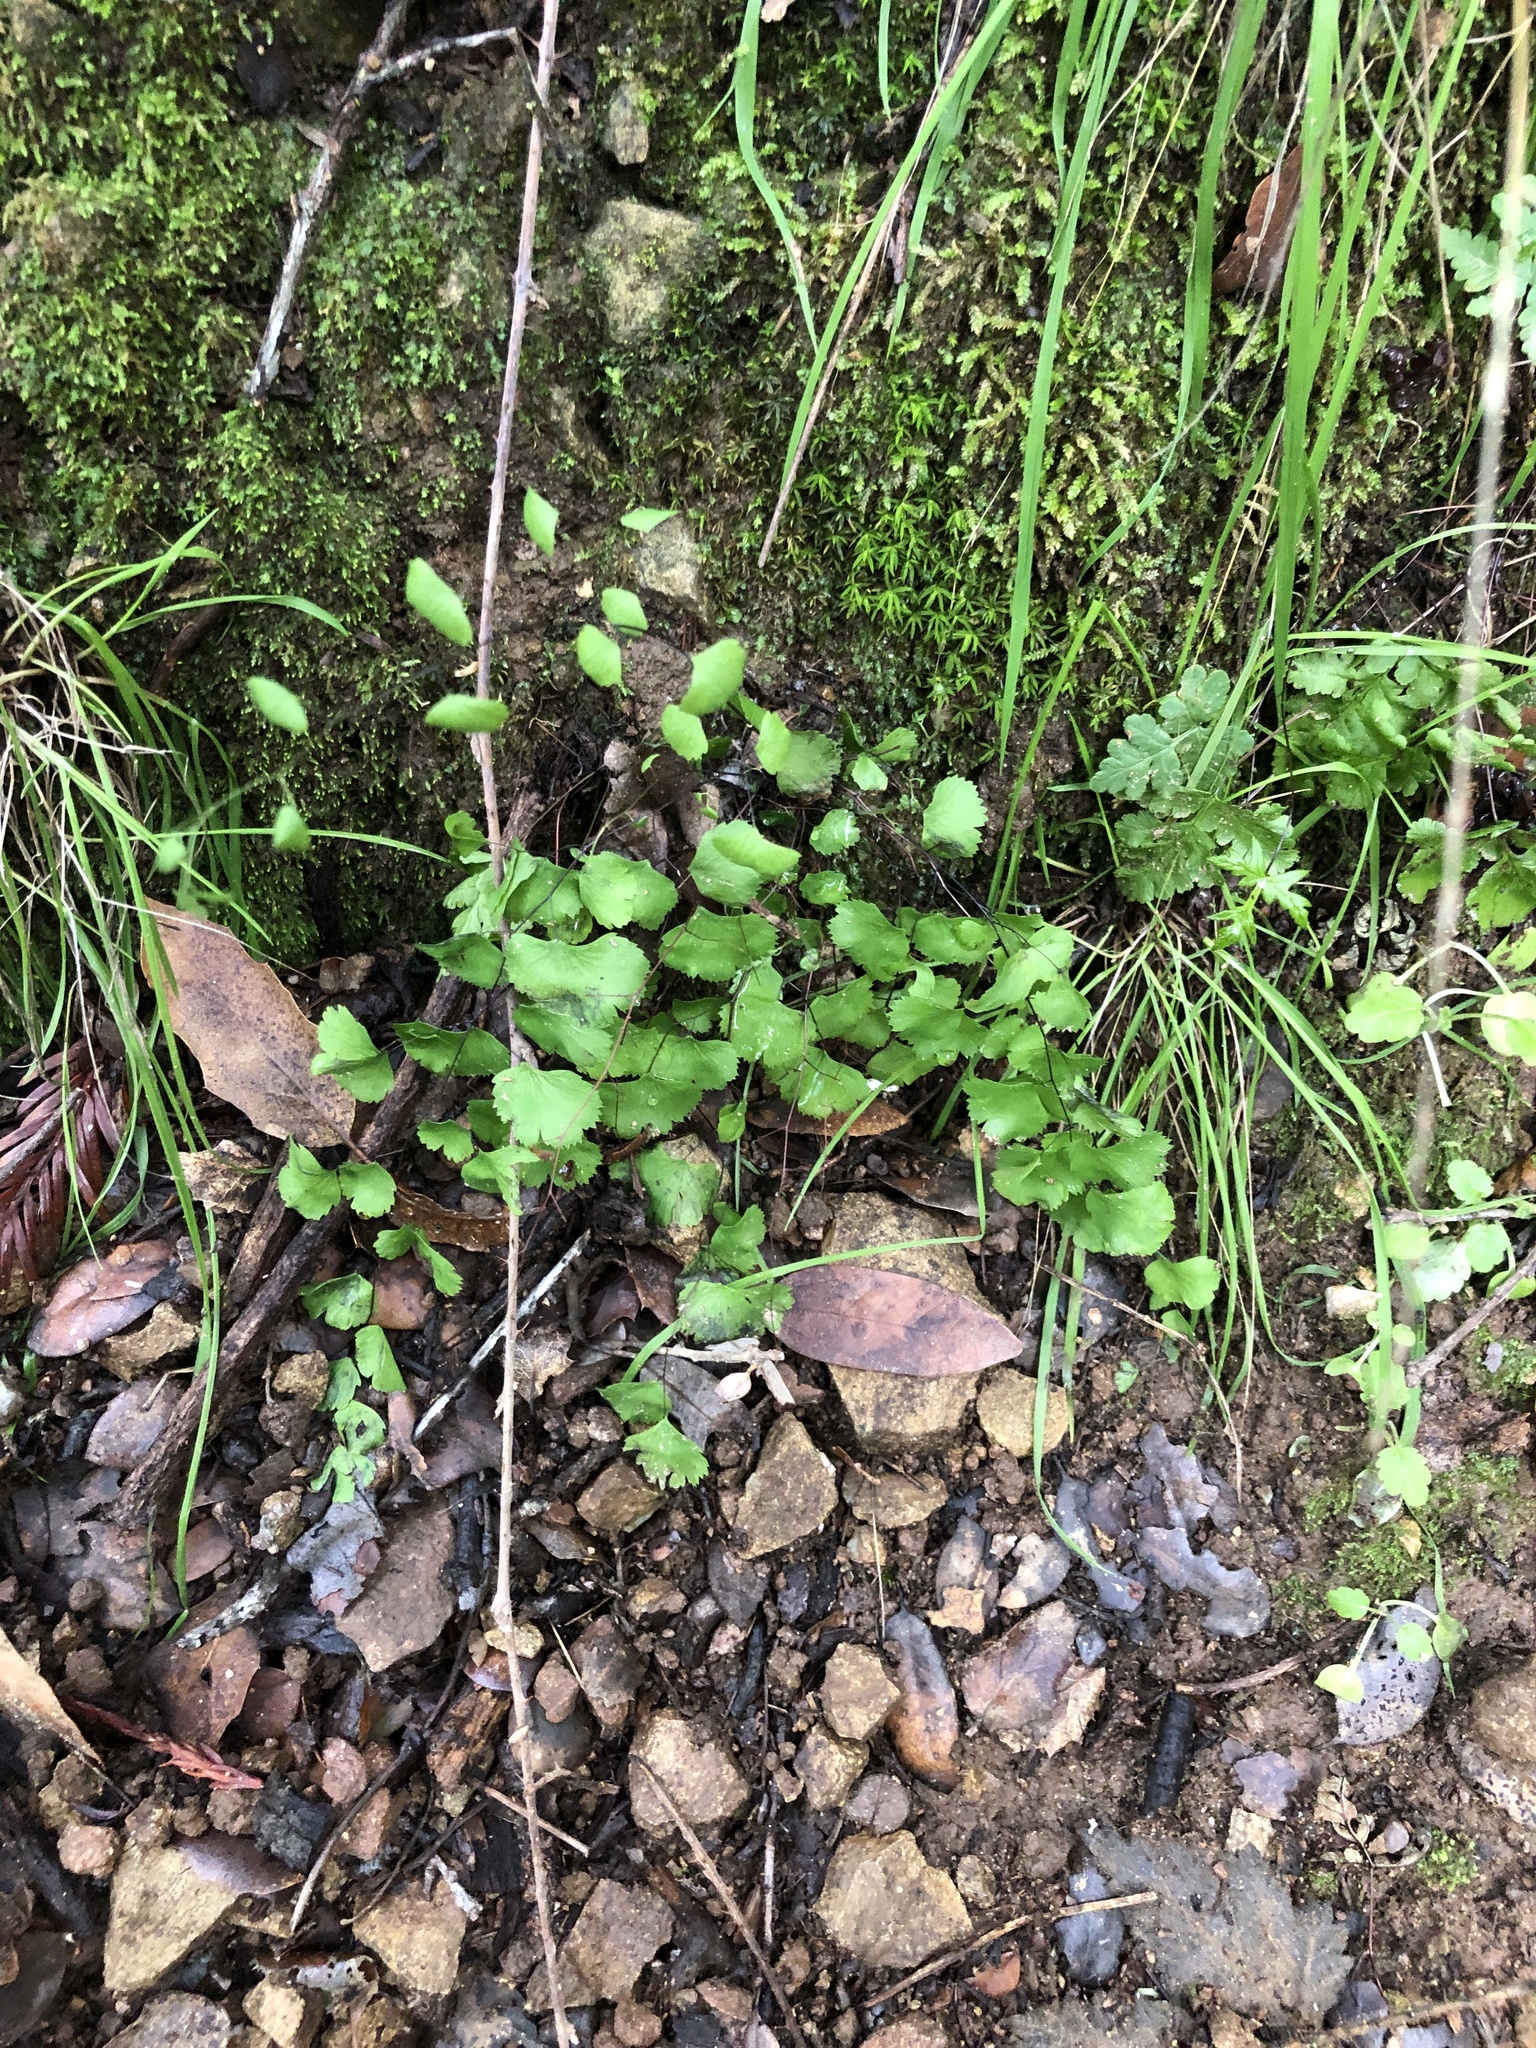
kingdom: Plantae
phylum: Tracheophyta
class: Polypodiopsida
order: Polypodiales
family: Pteridaceae
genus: Adiantum
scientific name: Adiantum jordanii
